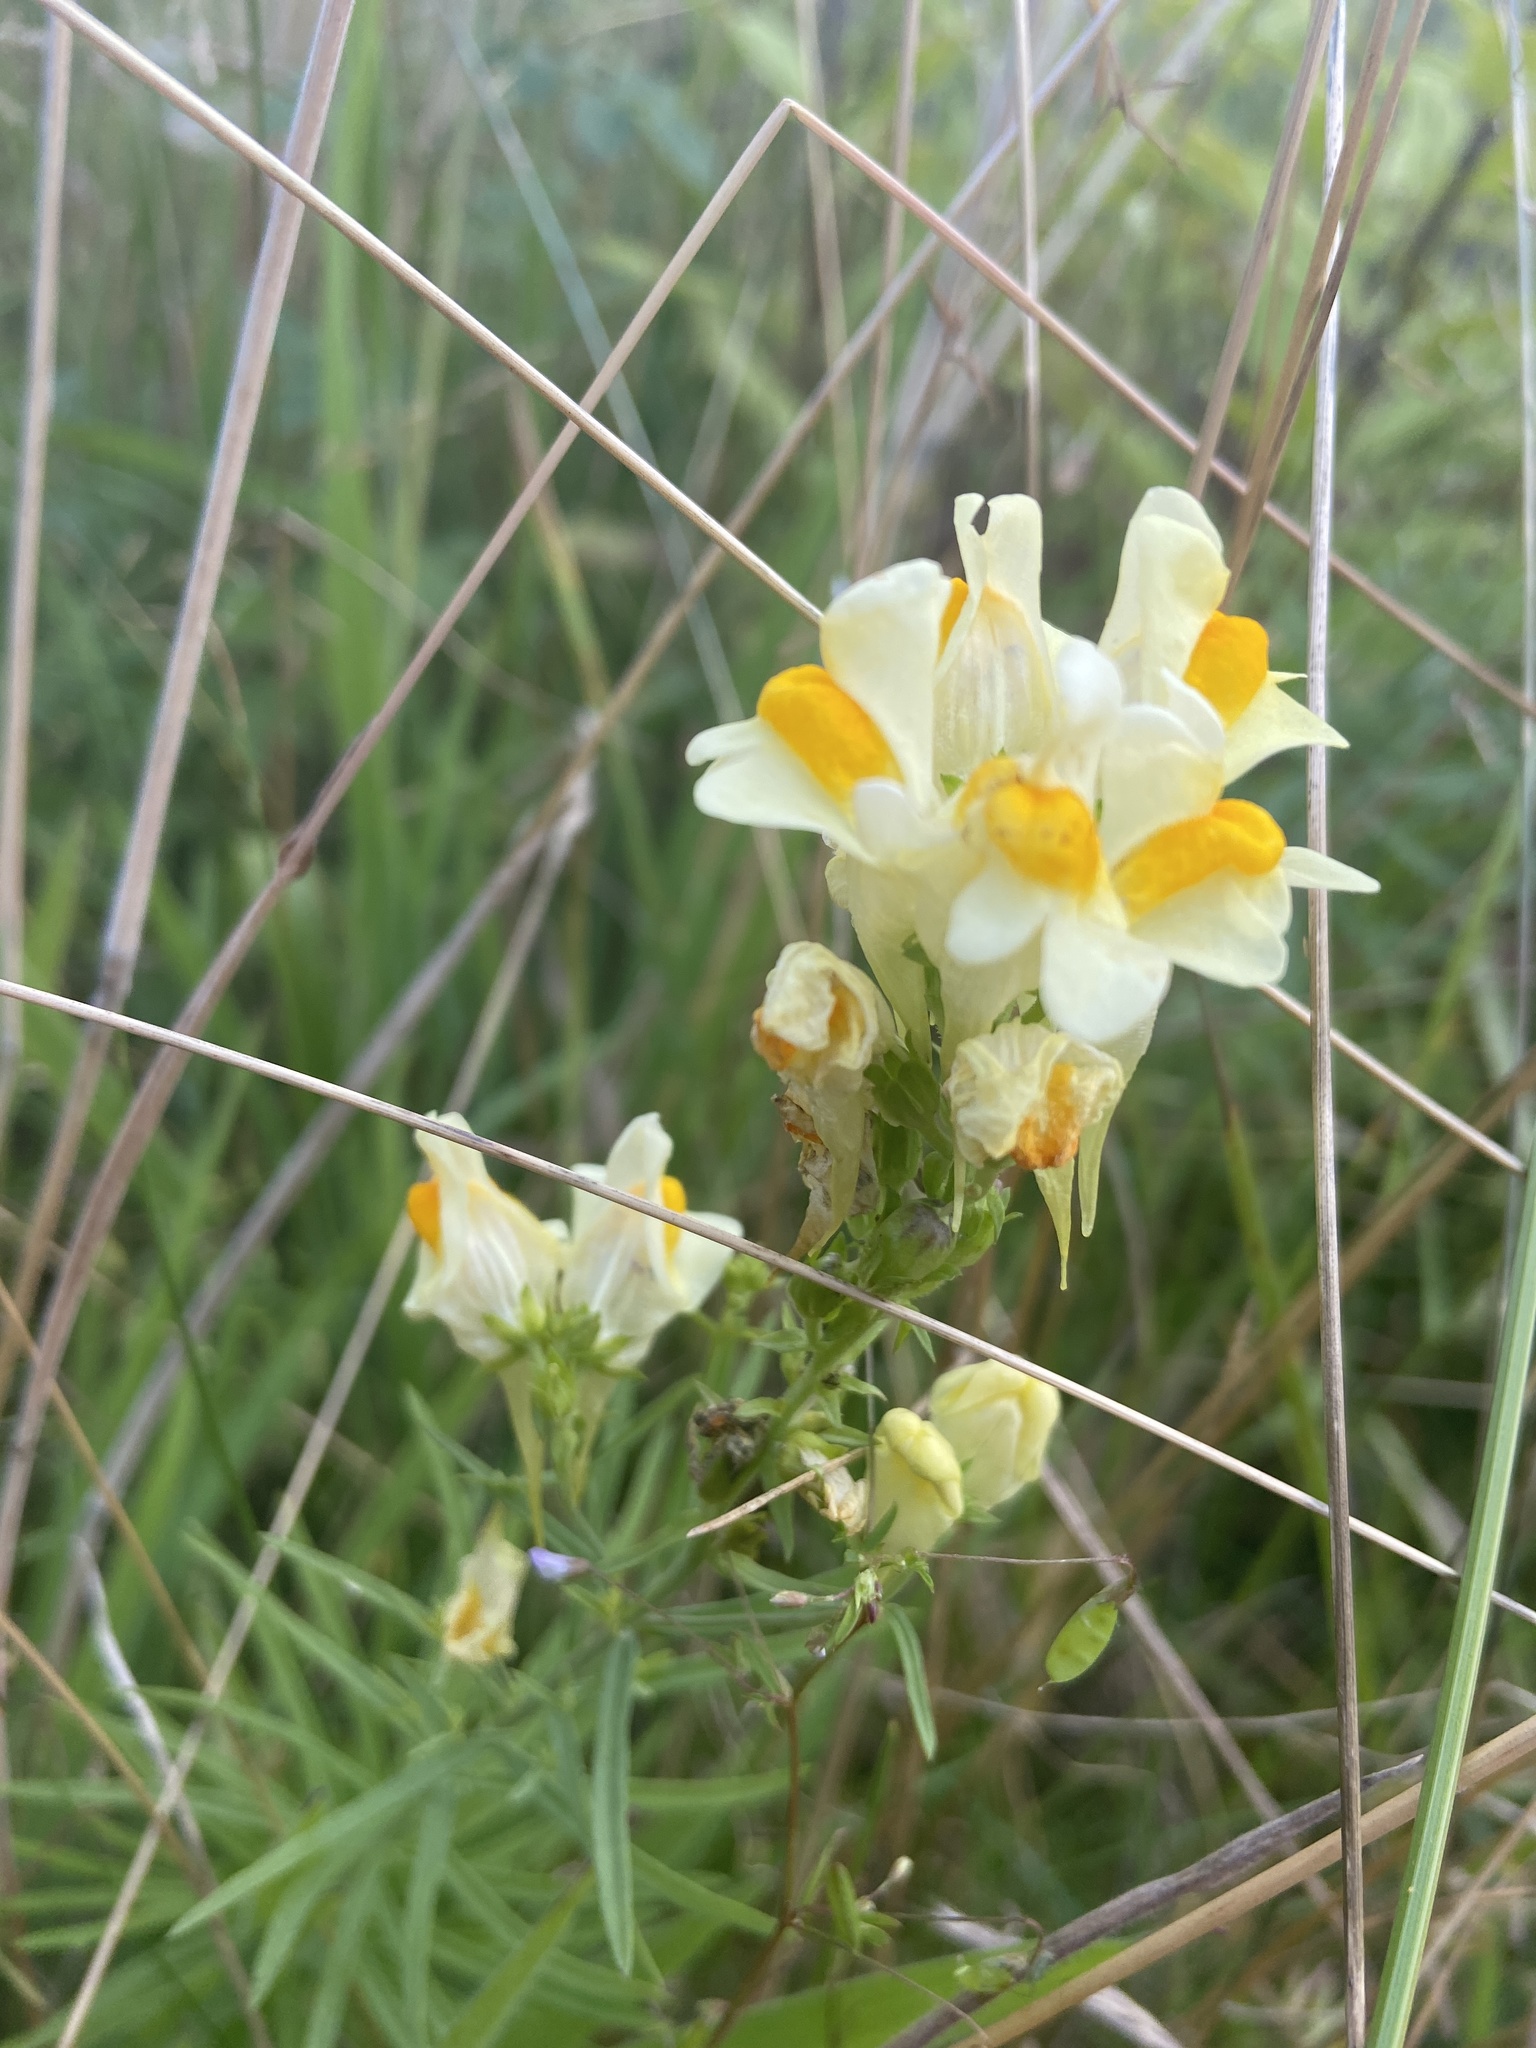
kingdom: Plantae
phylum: Tracheophyta
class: Magnoliopsida
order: Lamiales
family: Plantaginaceae
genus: Linaria
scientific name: Linaria vulgaris
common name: Butter and eggs
